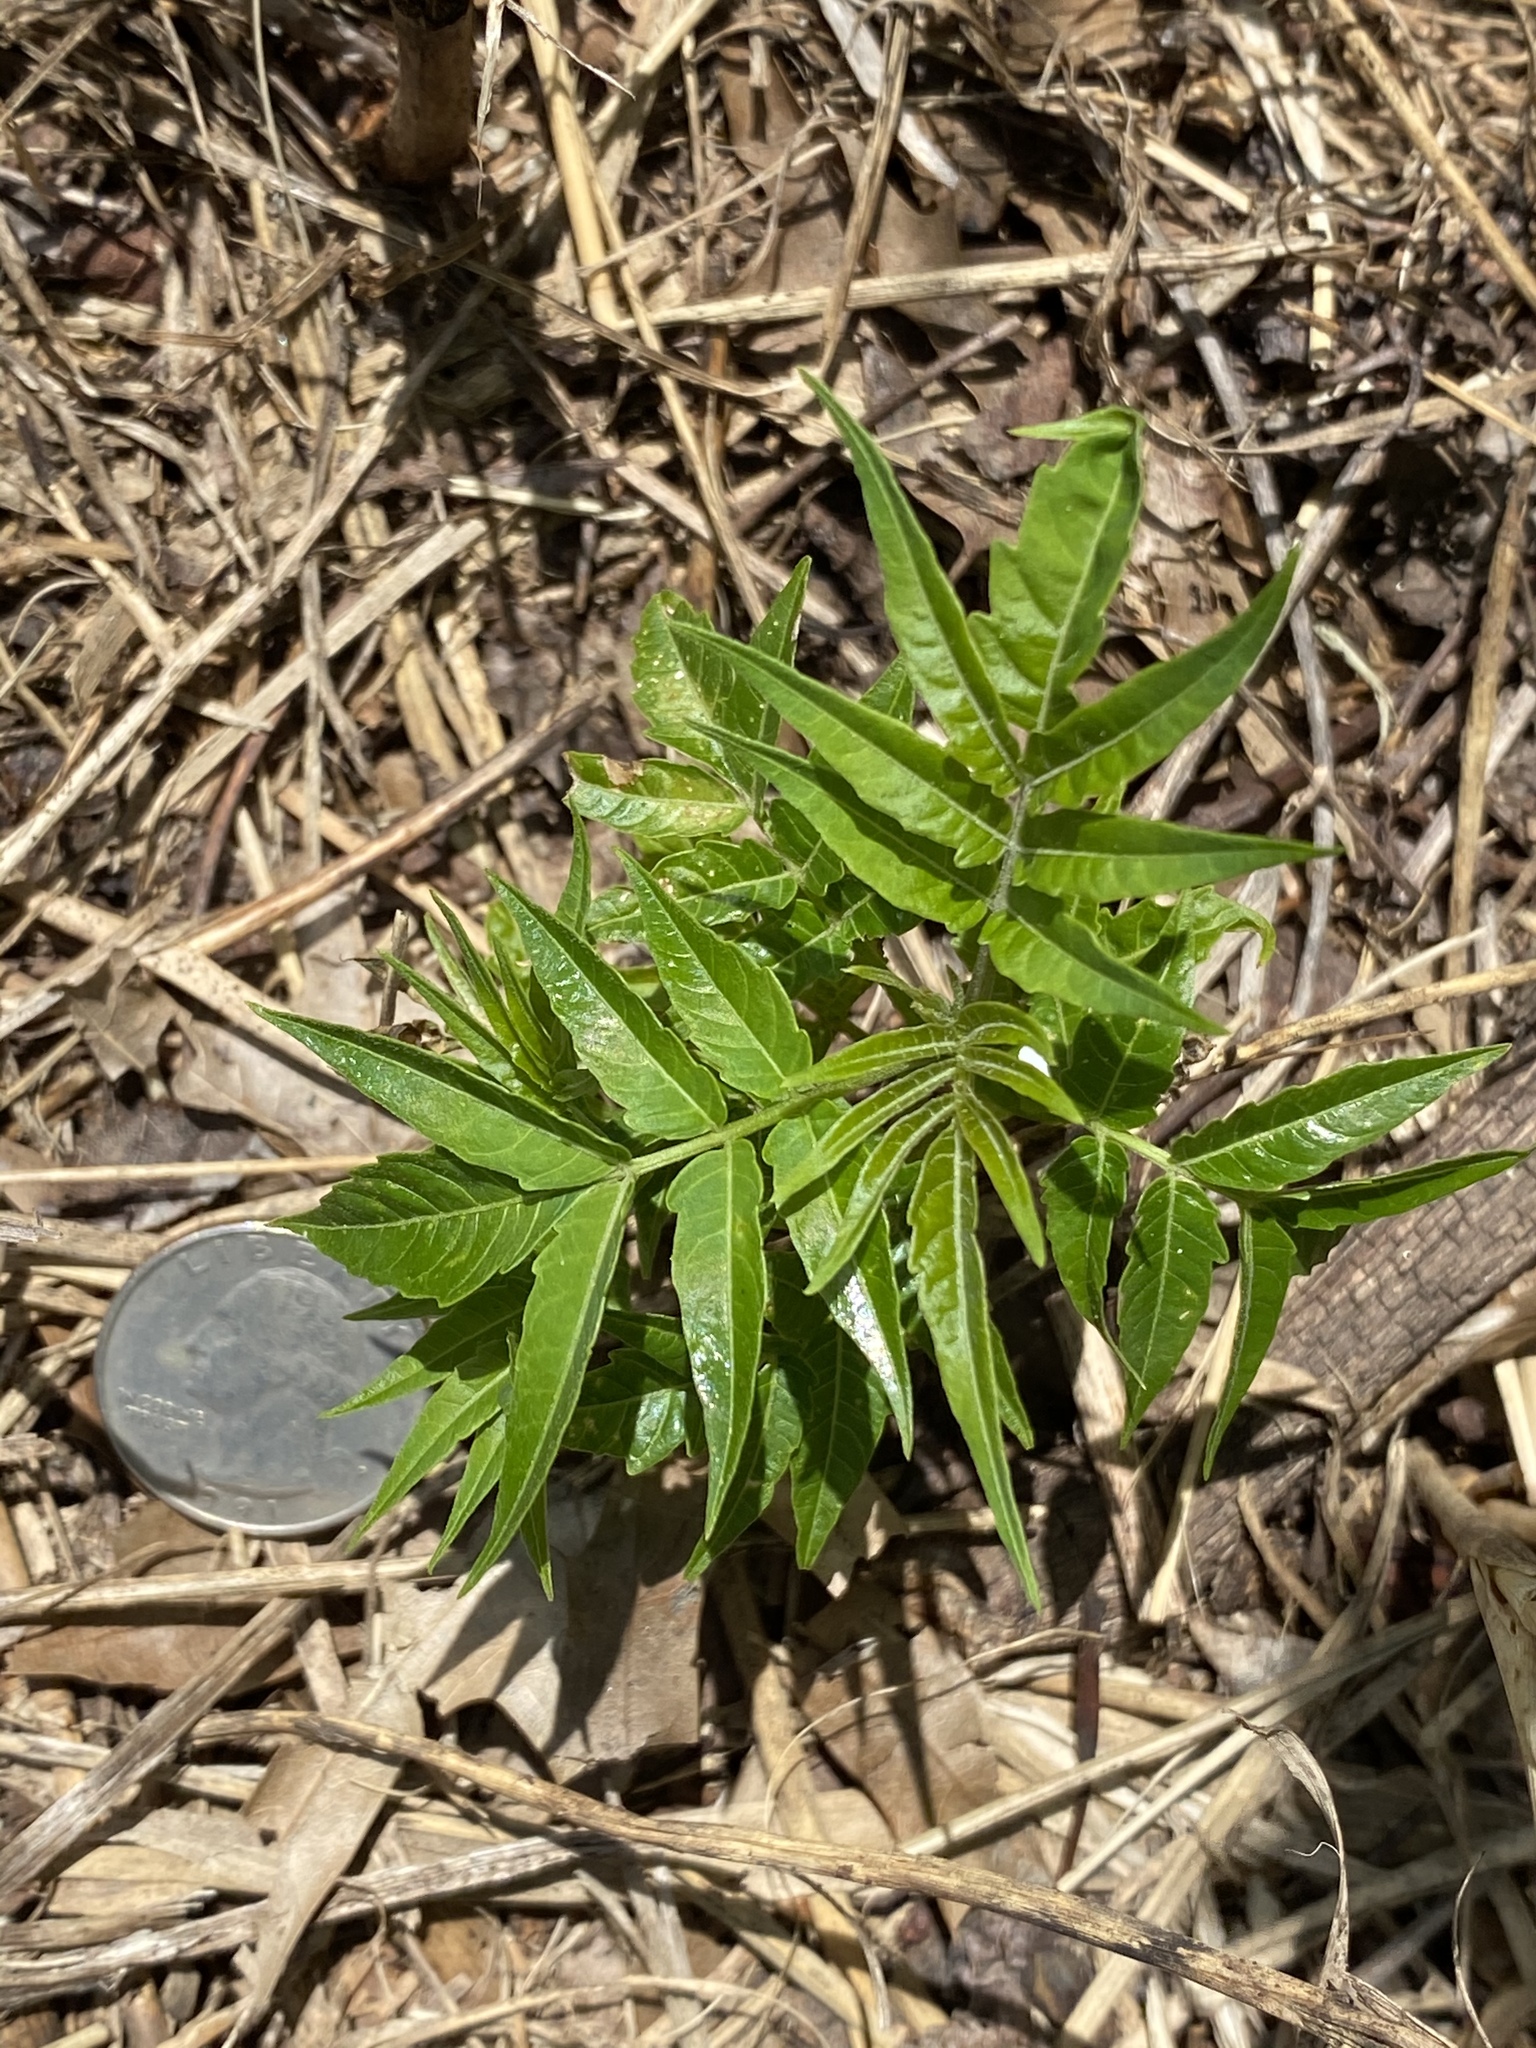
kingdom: Plantae
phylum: Tracheophyta
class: Magnoliopsida
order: Sapindales
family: Simaroubaceae
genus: Ailanthus
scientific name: Ailanthus altissima
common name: Tree-of-heaven
